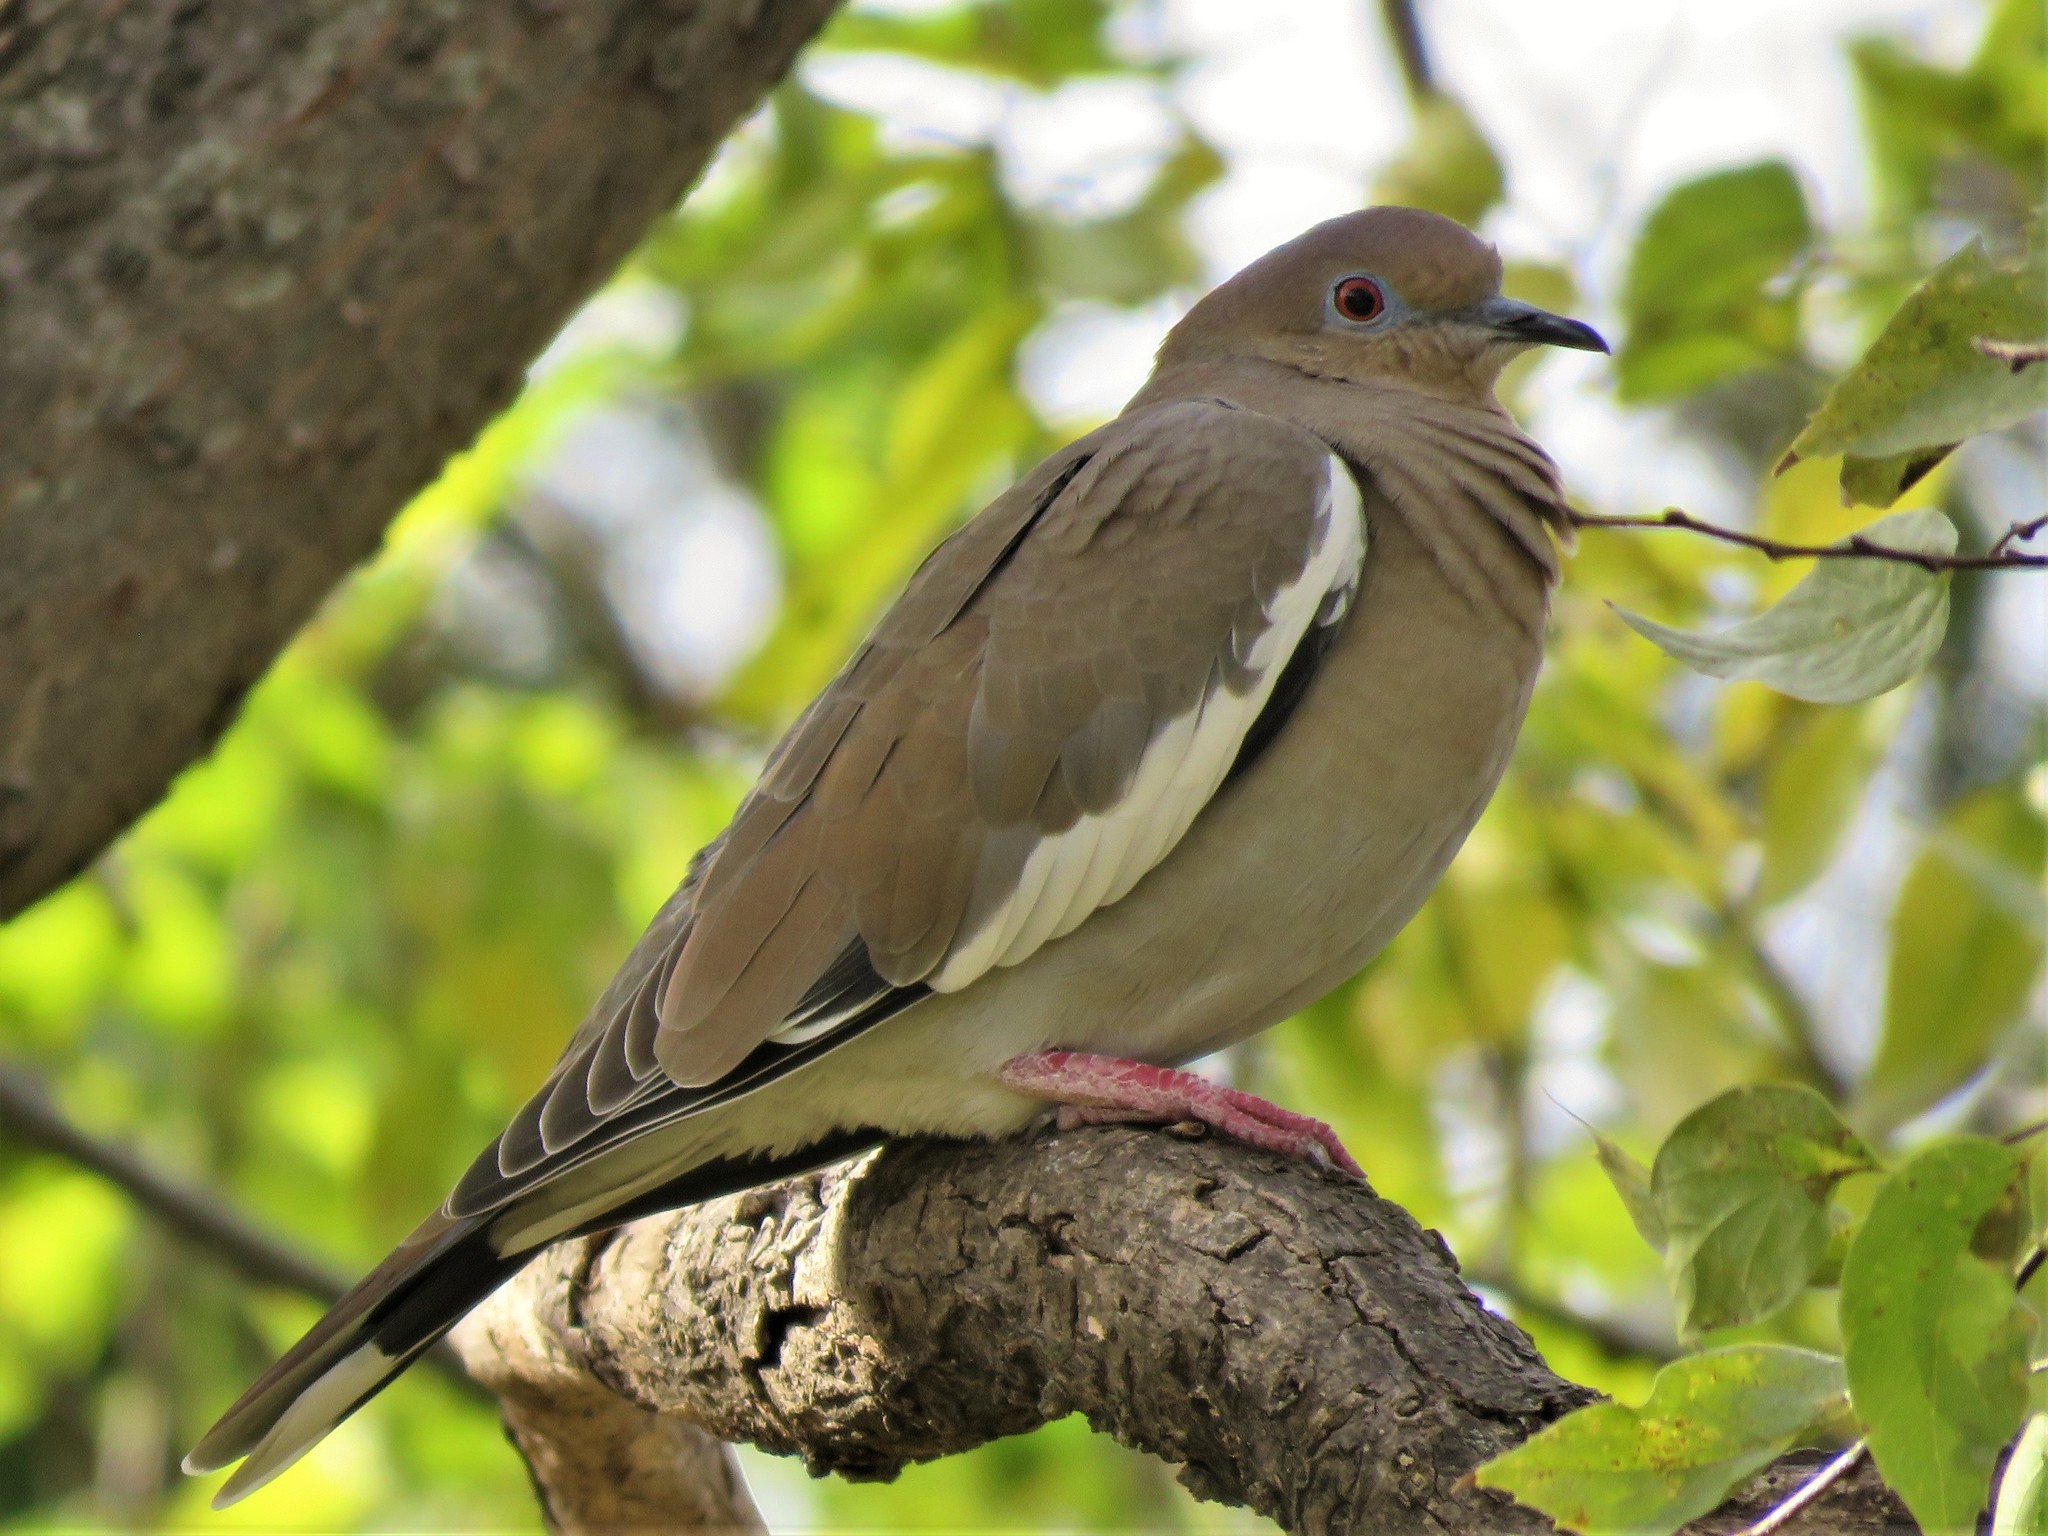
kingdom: Animalia
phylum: Chordata
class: Aves
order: Columbiformes
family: Columbidae
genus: Zenaida
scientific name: Zenaida asiatica
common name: White-winged dove
